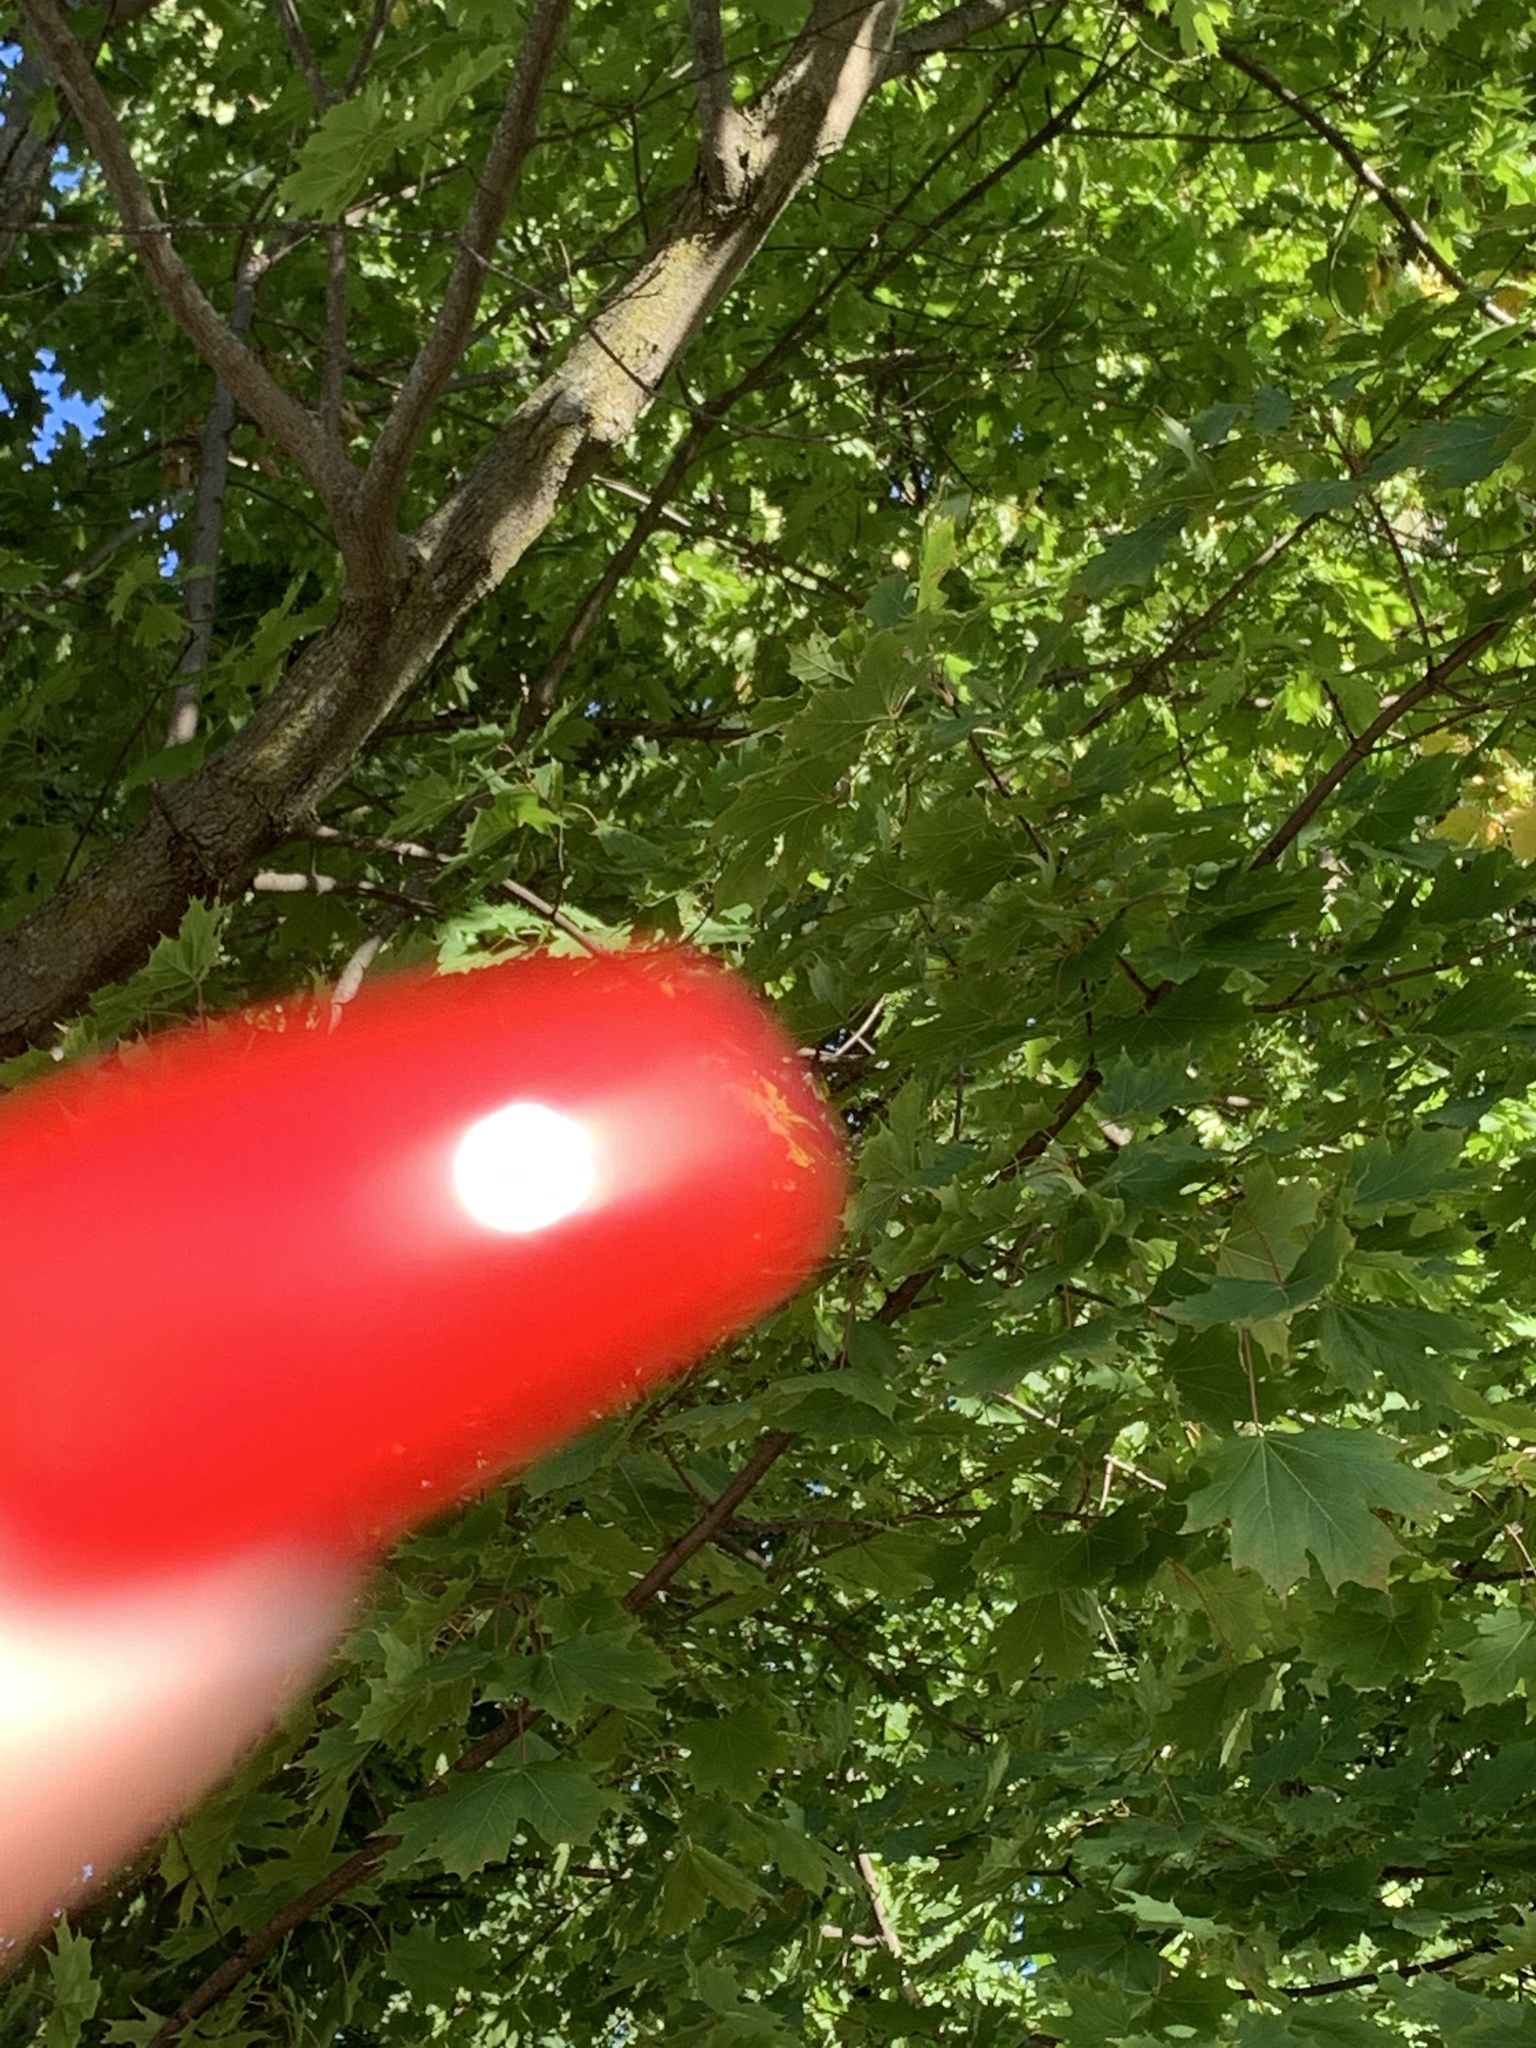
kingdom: Plantae
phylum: Tracheophyta
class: Magnoliopsida
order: Sapindales
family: Sapindaceae
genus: Acer
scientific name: Acer platanoides
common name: Norway maple
